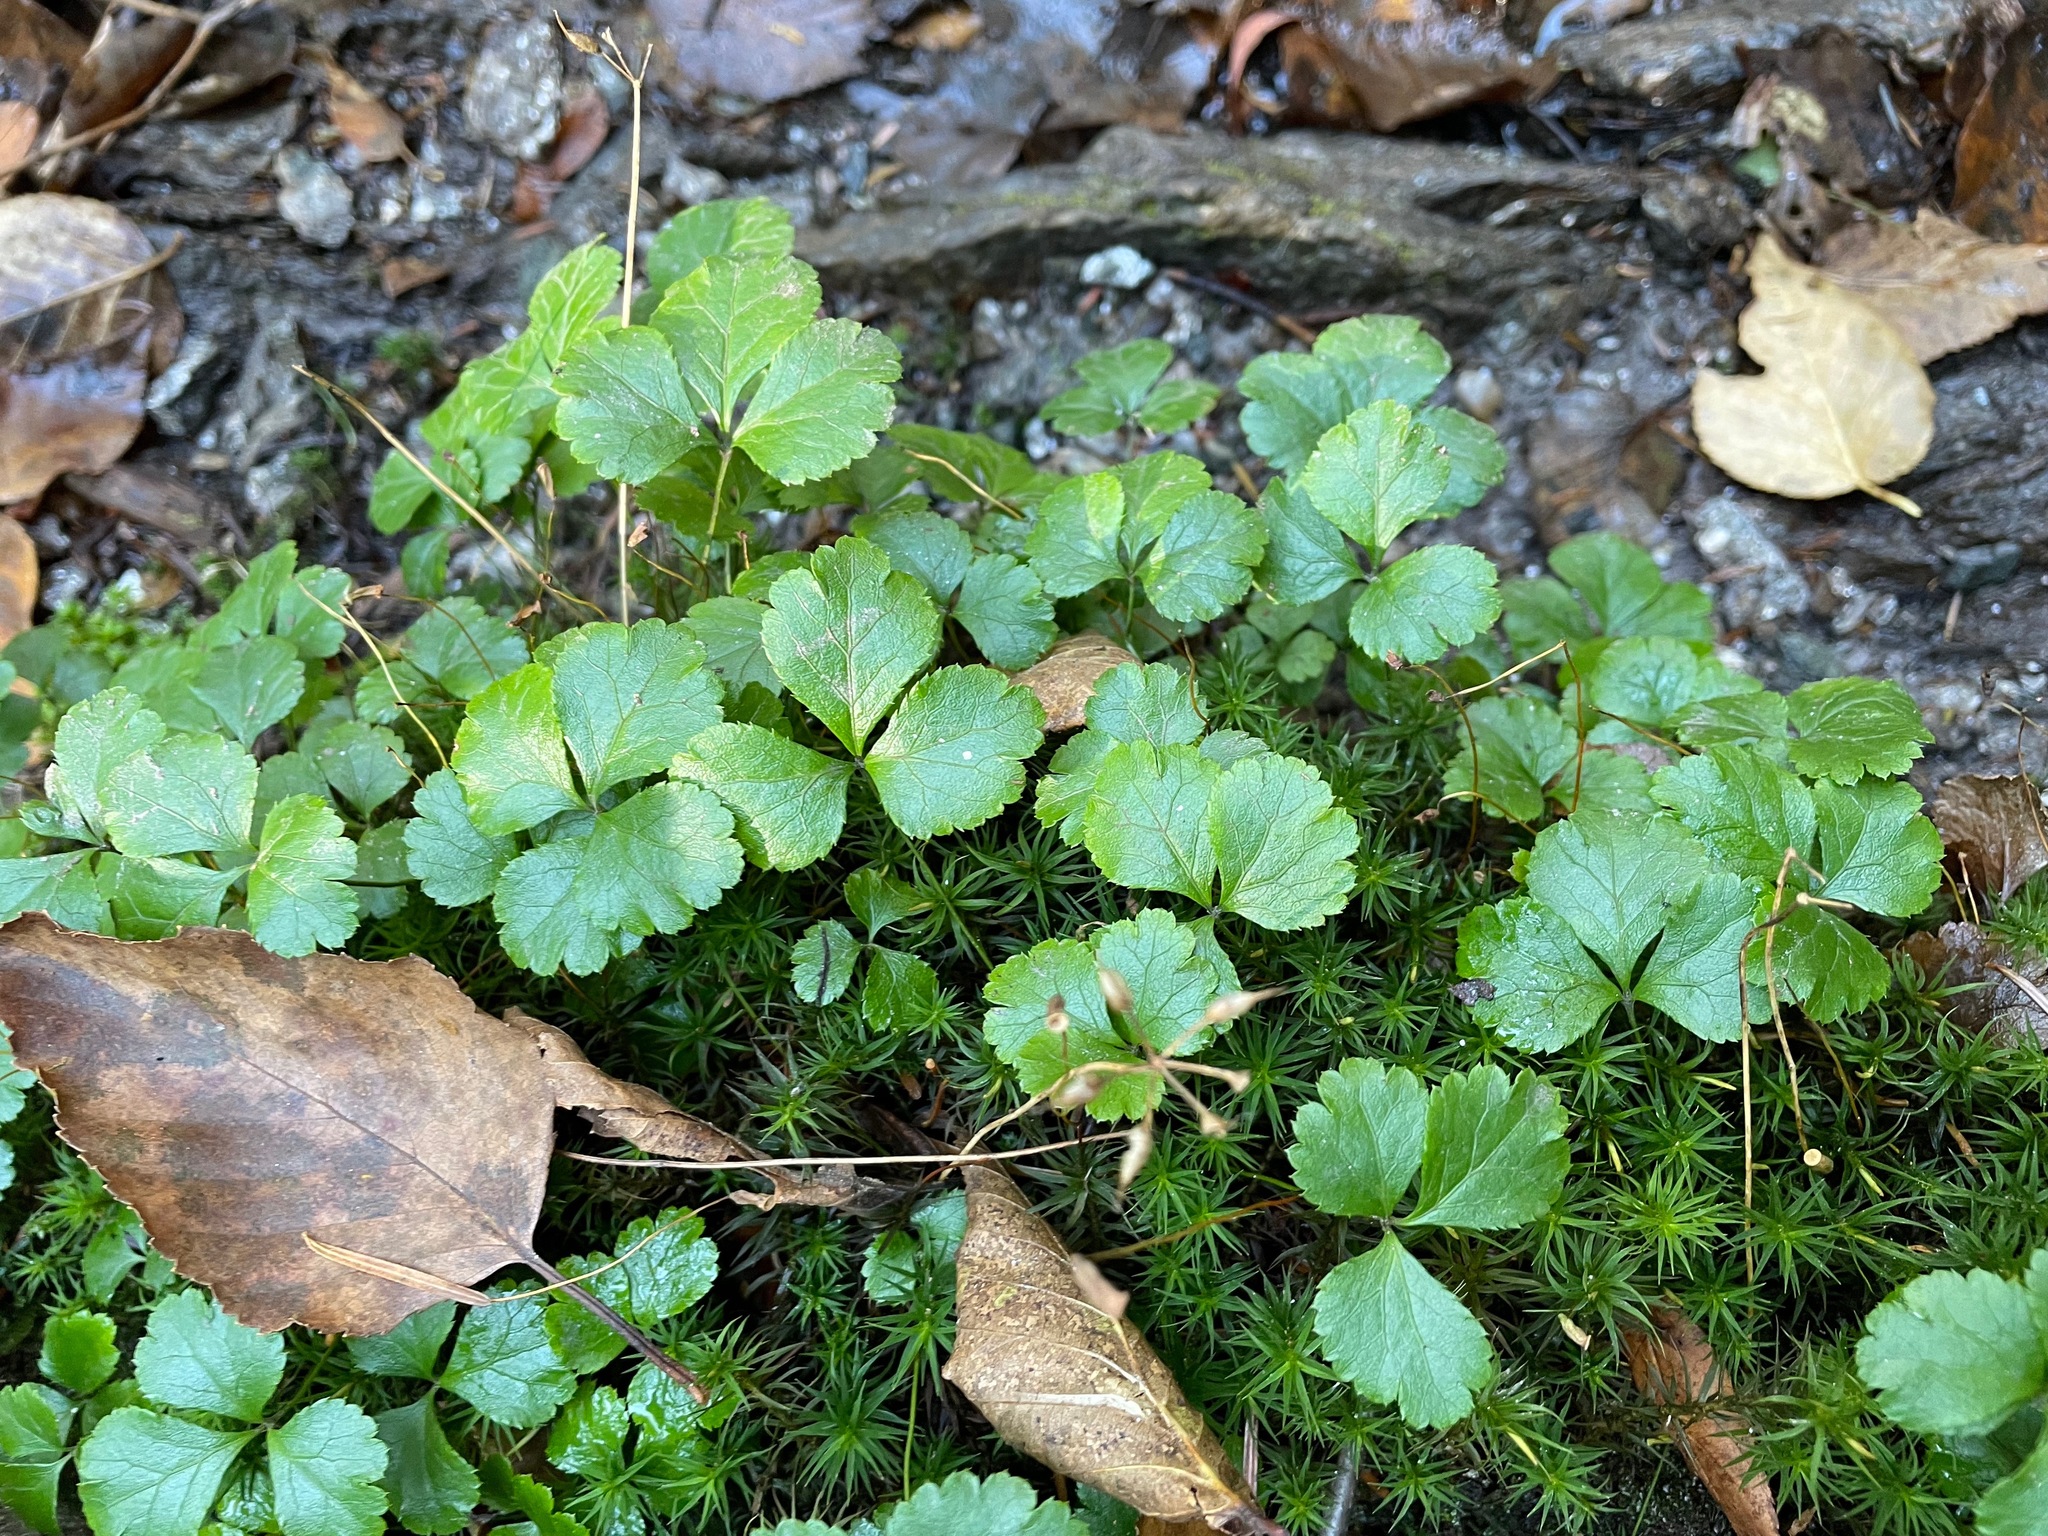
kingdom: Plantae
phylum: Tracheophyta
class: Magnoliopsida
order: Ranunculales
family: Ranunculaceae
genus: Coptis
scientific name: Coptis trifolia
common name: Canker-root
